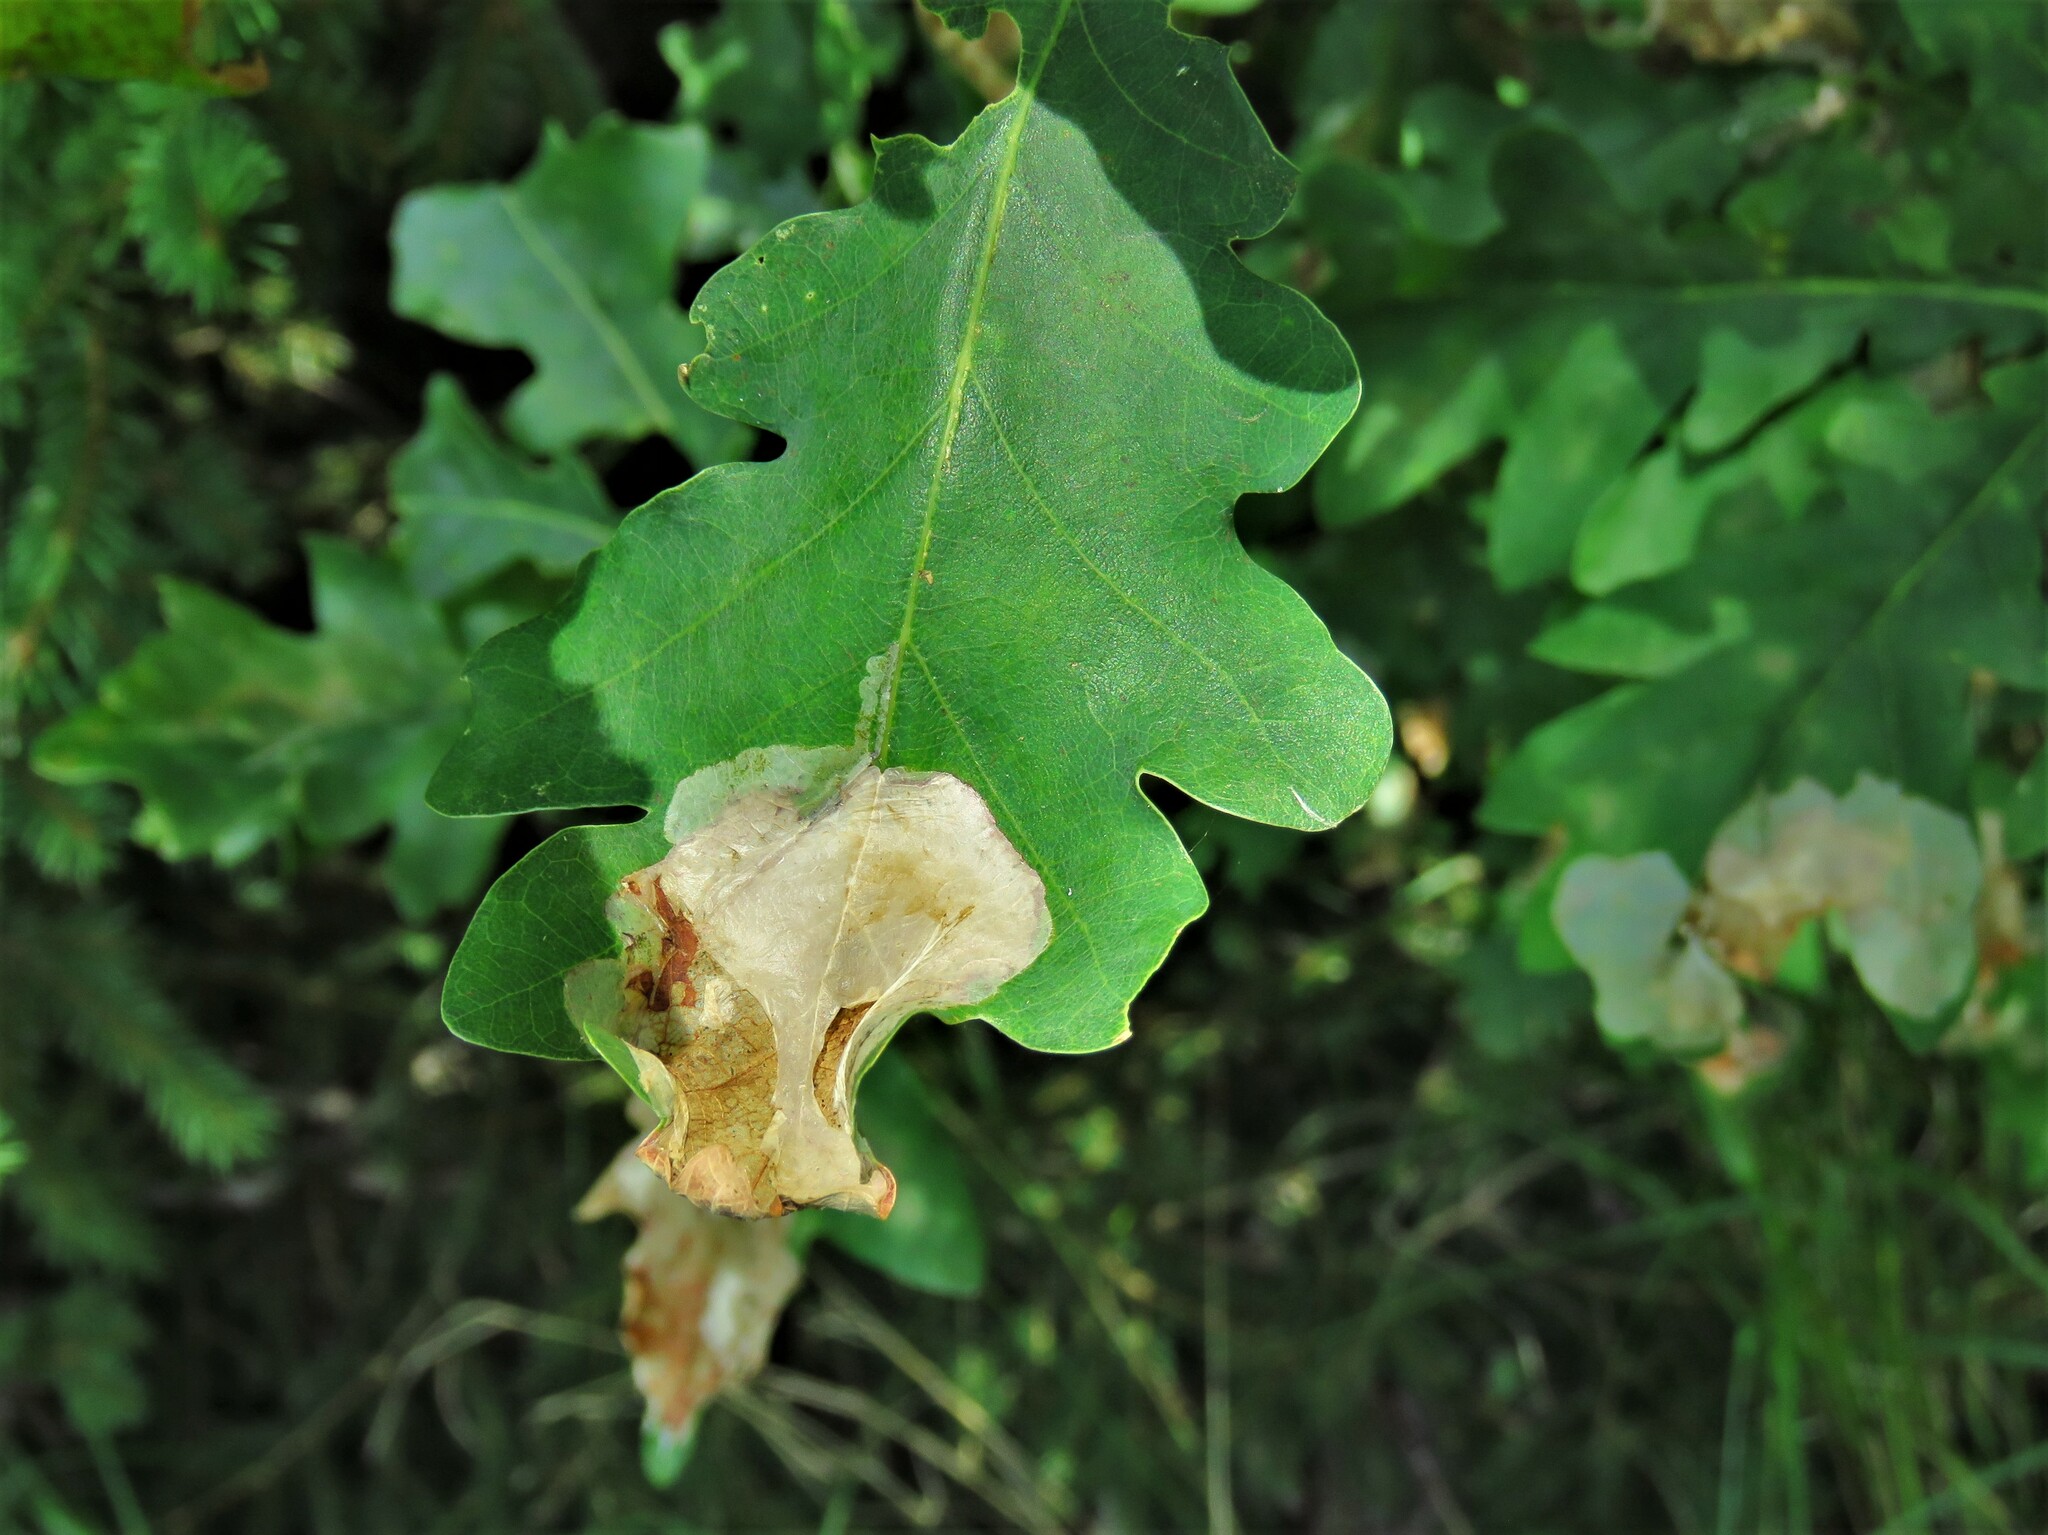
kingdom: Animalia
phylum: Arthropoda
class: Insecta
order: Lepidoptera
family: Gracillariidae
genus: Acrocercops
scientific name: Acrocercops brongniardella
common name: Brown oak slender
